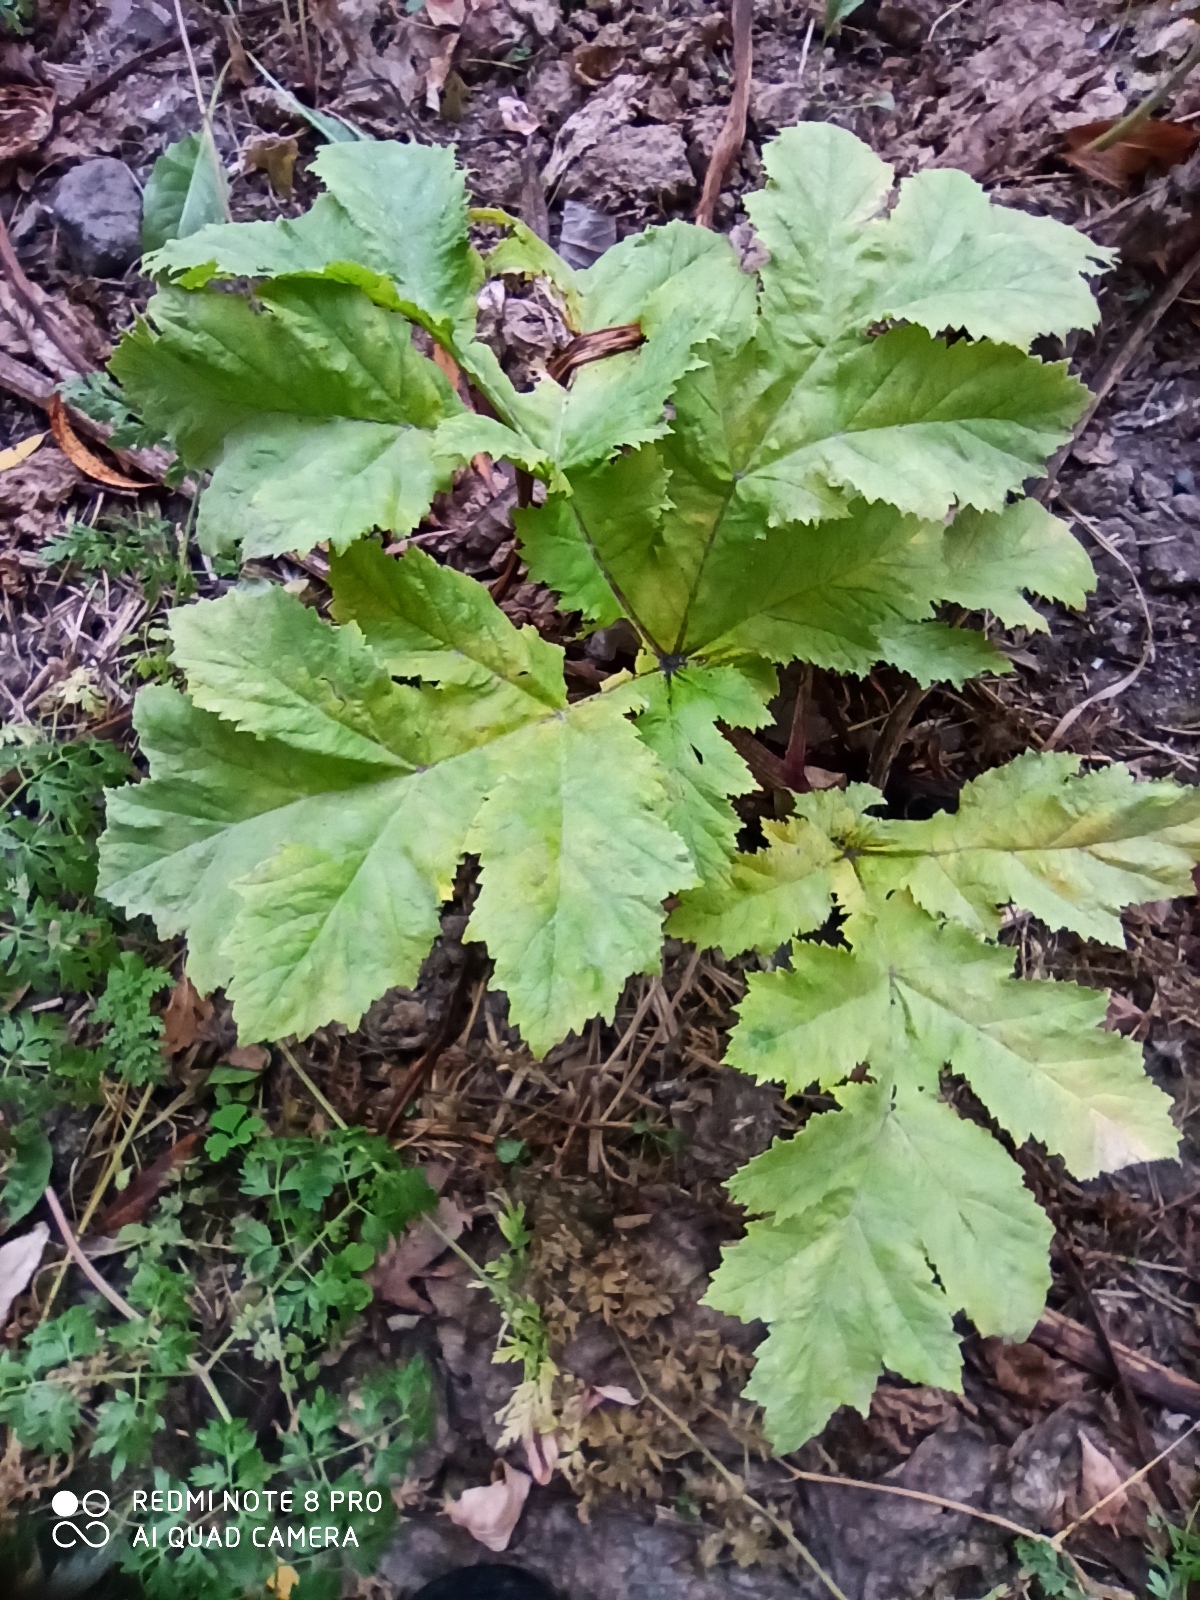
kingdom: Plantae
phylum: Tracheophyta
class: Magnoliopsida
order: Apiales
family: Apiaceae
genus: Heracleum
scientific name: Heracleum sosnowskyi
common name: Sosnowsky's hogweed
